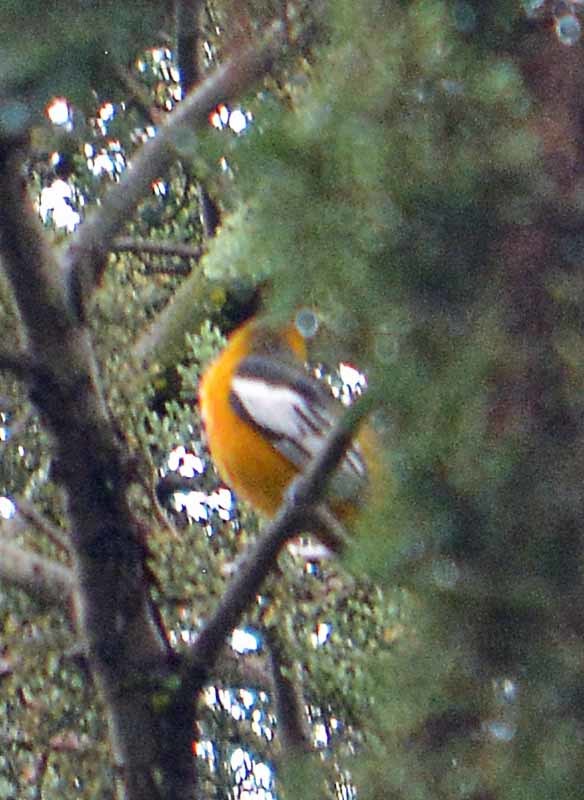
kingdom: Animalia
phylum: Chordata
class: Aves
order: Passeriformes
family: Icteridae
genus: Icterus
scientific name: Icterus bullockii
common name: Bullock's oriole
